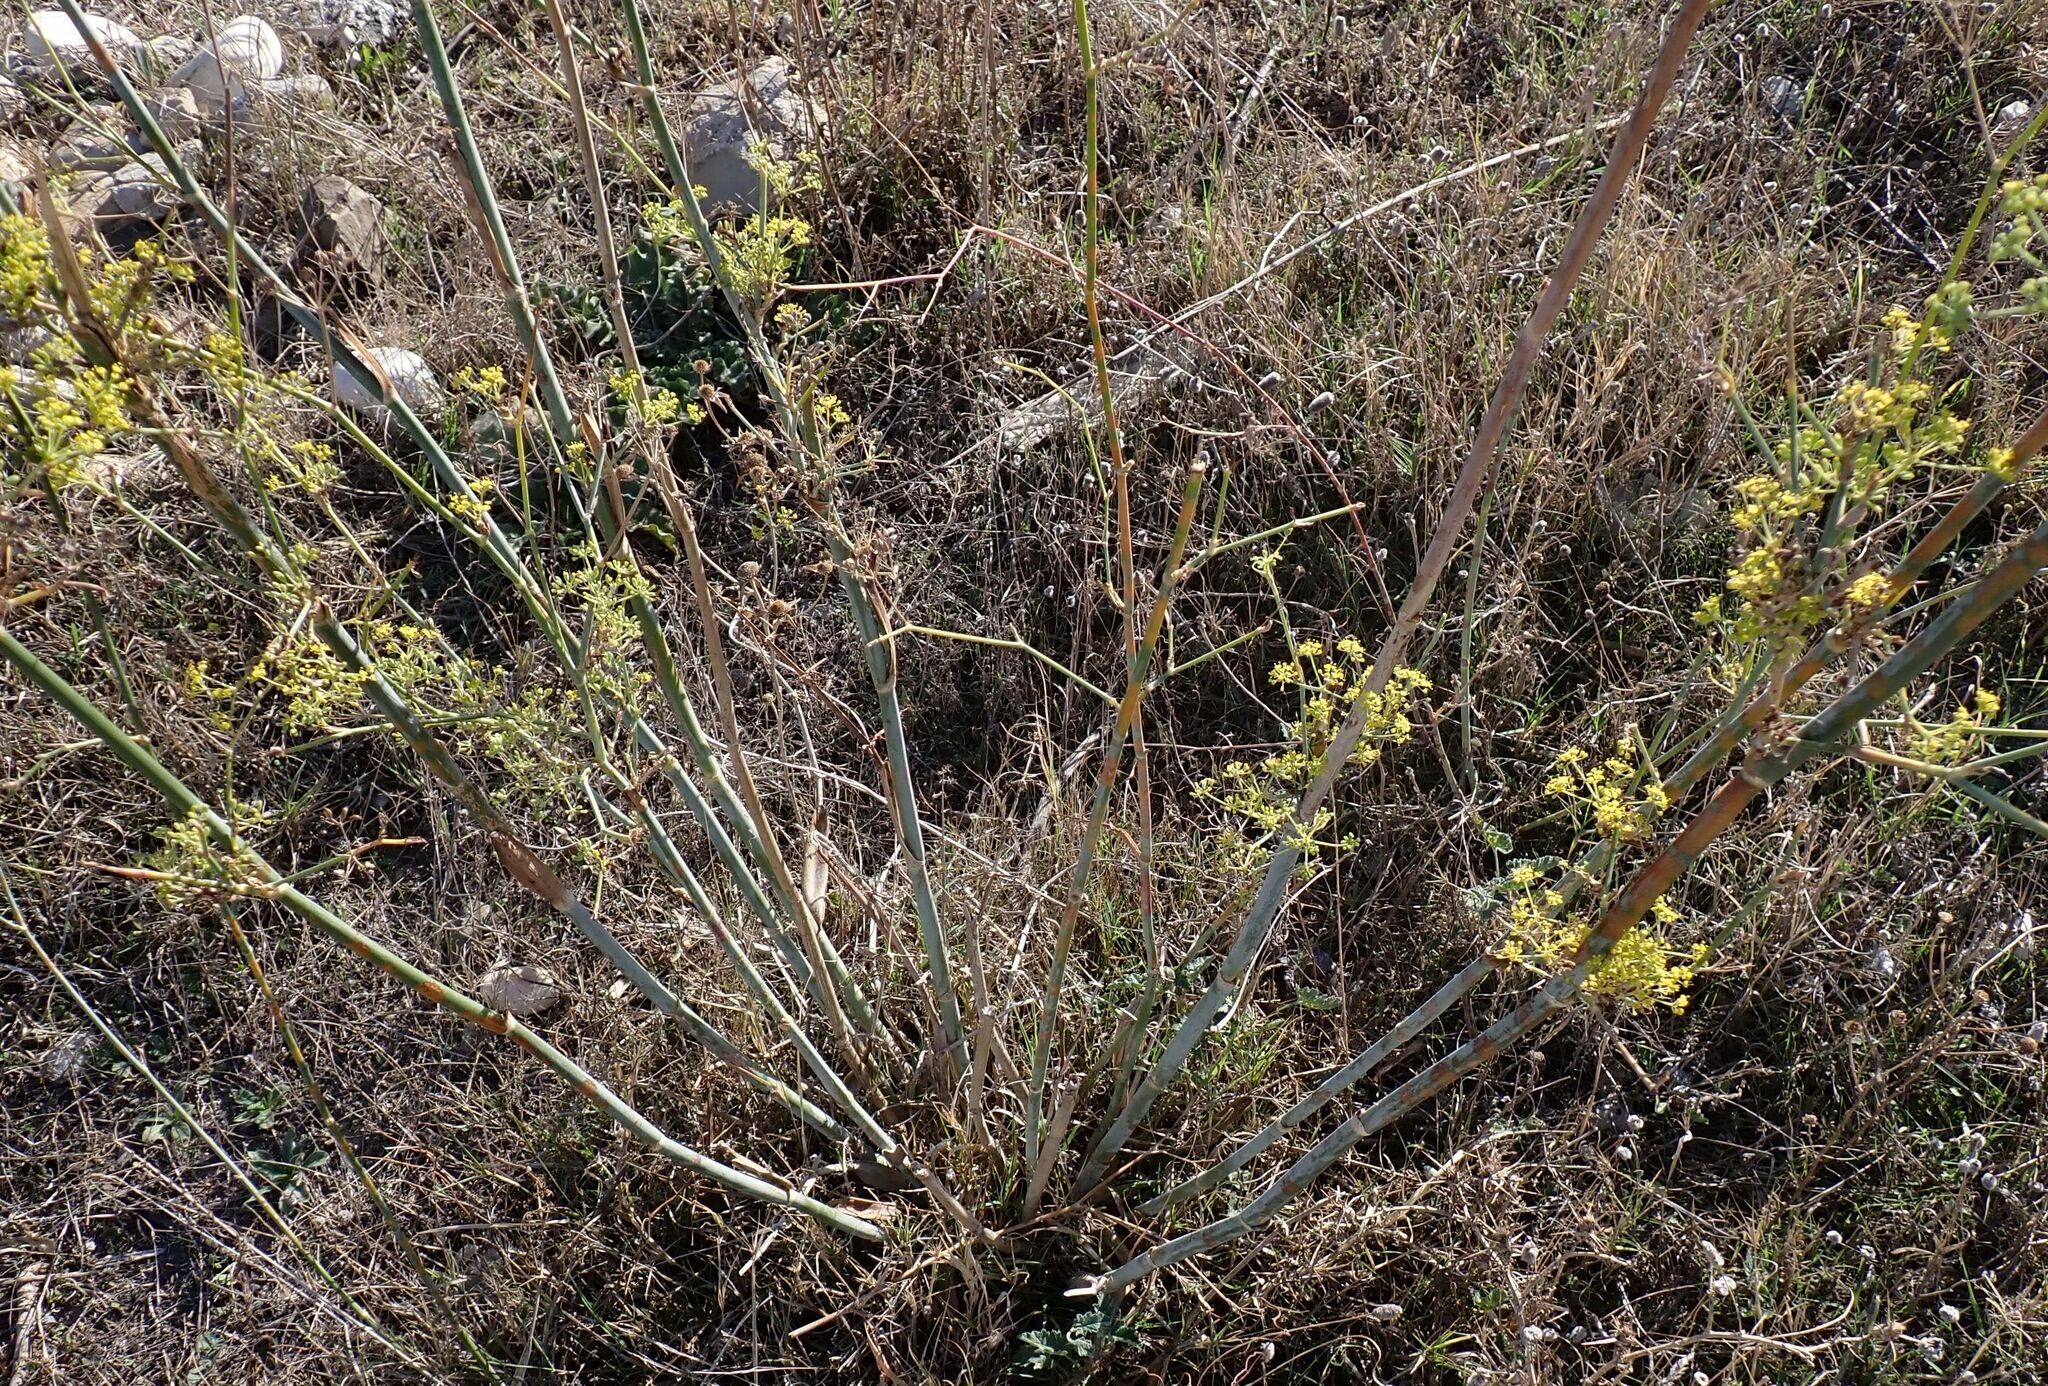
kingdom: Plantae
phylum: Tracheophyta
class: Magnoliopsida
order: Apiales
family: Apiaceae
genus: Foeniculum
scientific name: Foeniculum vulgare
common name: Fennel
